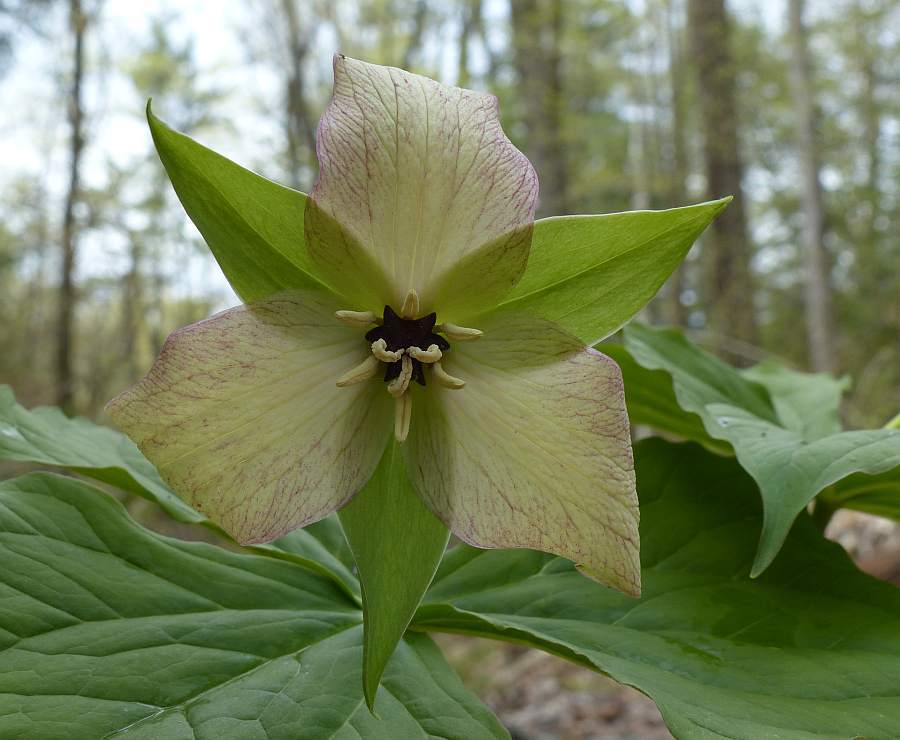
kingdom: Plantae
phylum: Tracheophyta
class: Liliopsida
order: Liliales
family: Melanthiaceae
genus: Trillium
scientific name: Trillium erectum
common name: Purple trillium
